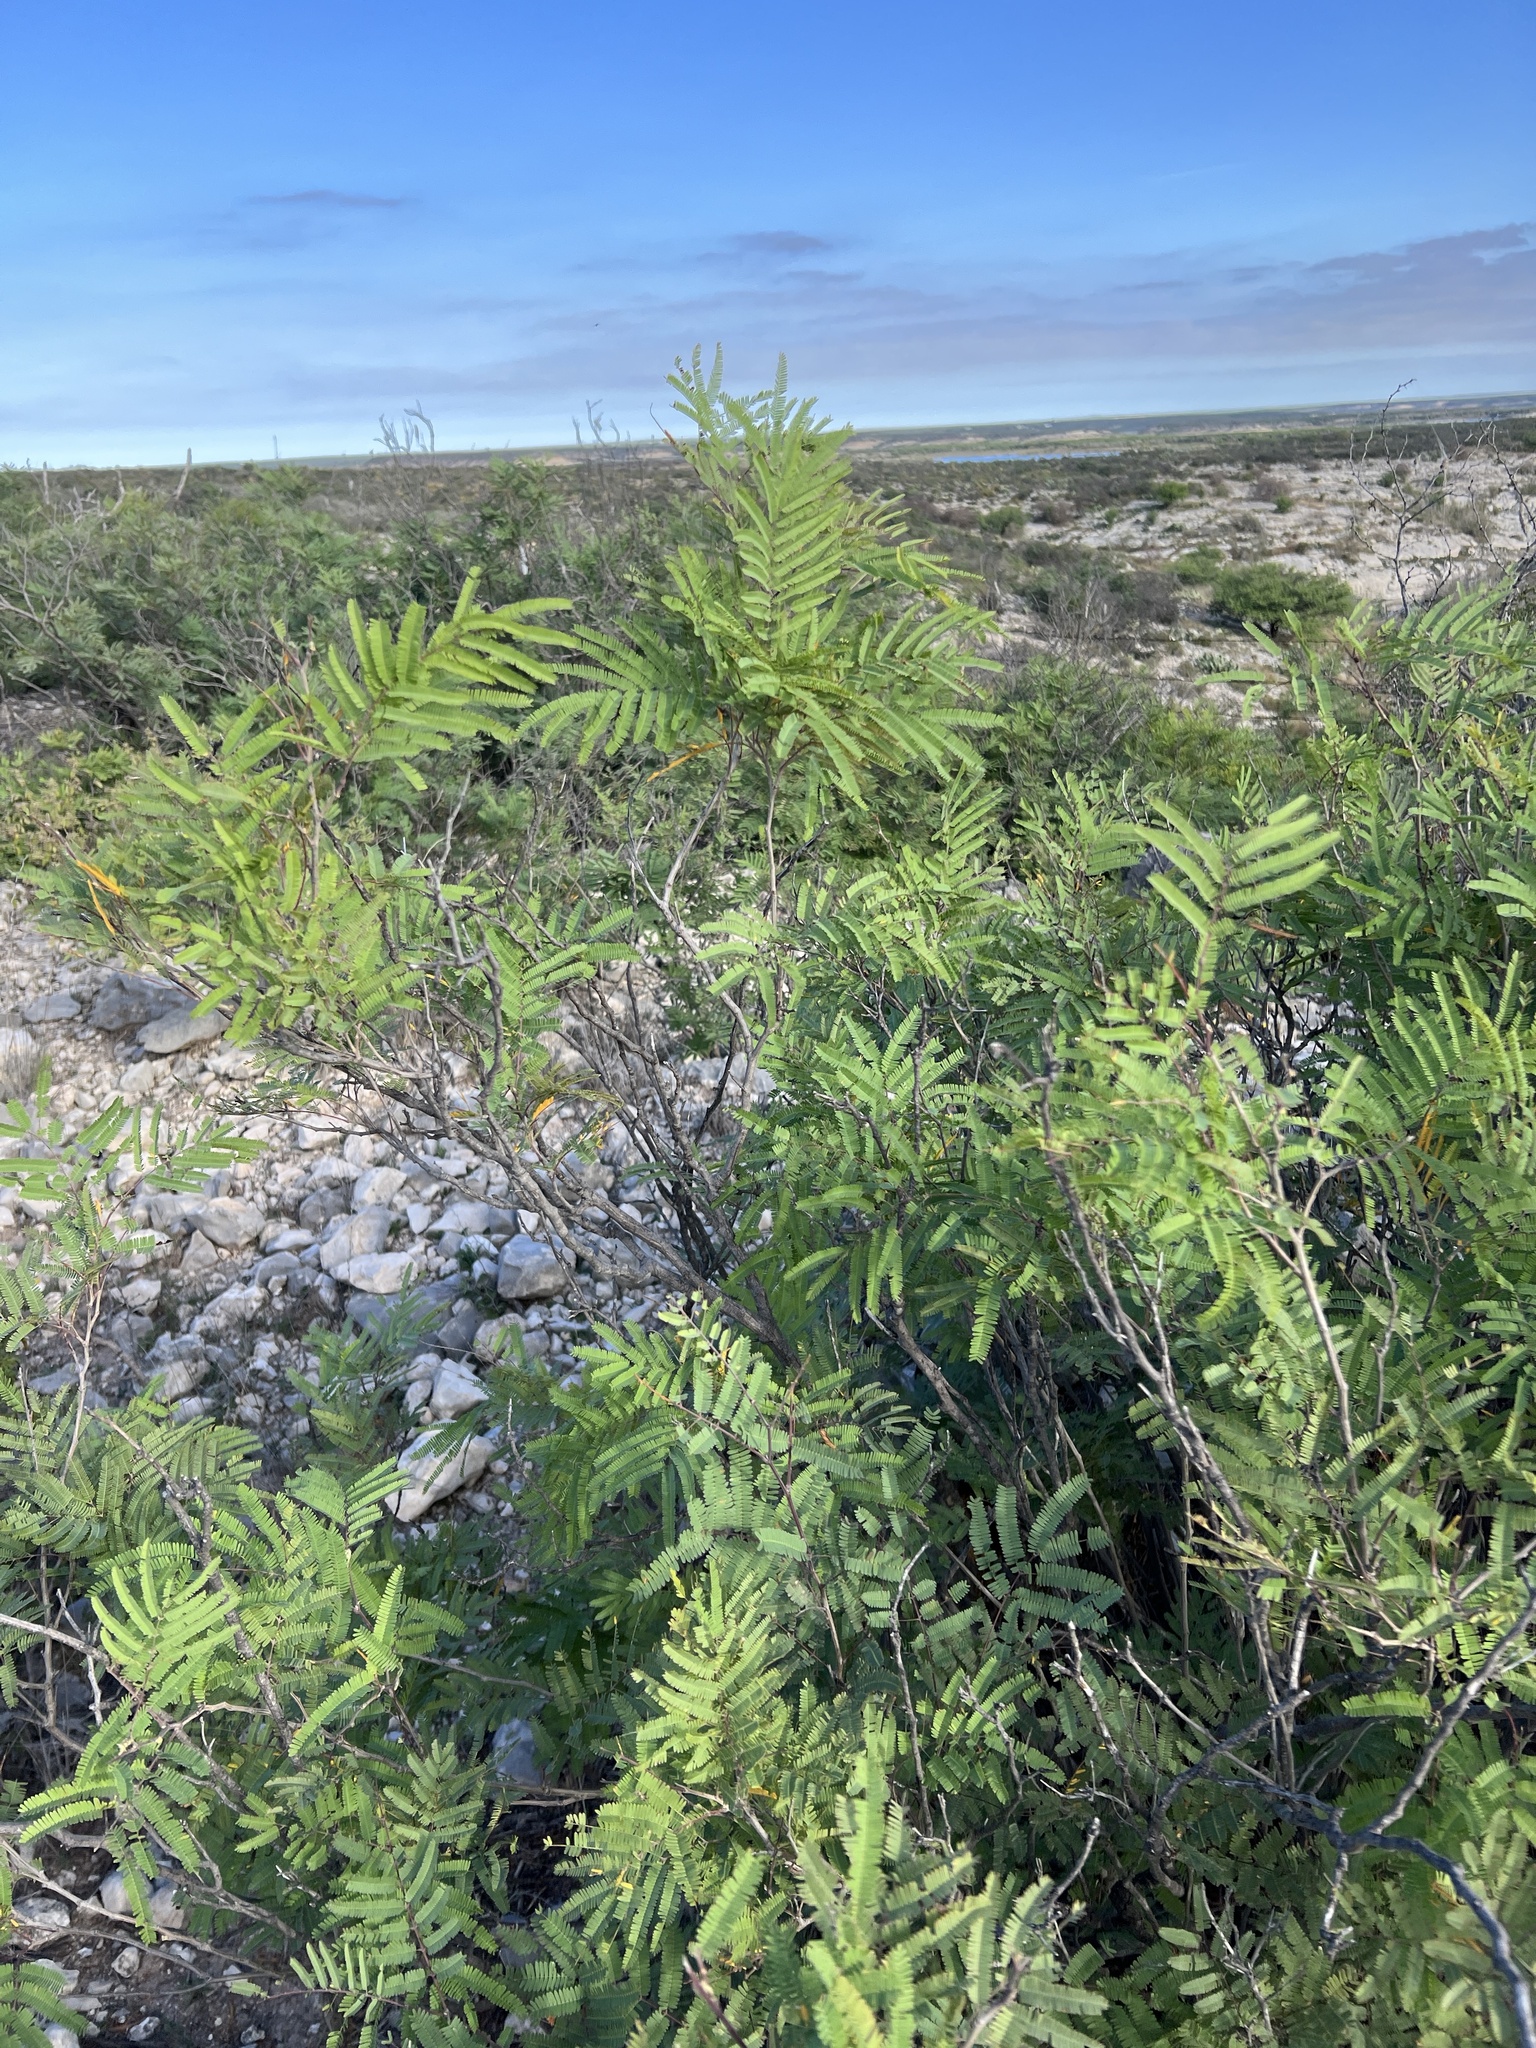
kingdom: Plantae
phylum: Tracheophyta
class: Magnoliopsida
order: Fabales
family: Fabaceae
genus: Senegalia
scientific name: Senegalia berlandieri
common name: Berlandier acacia
